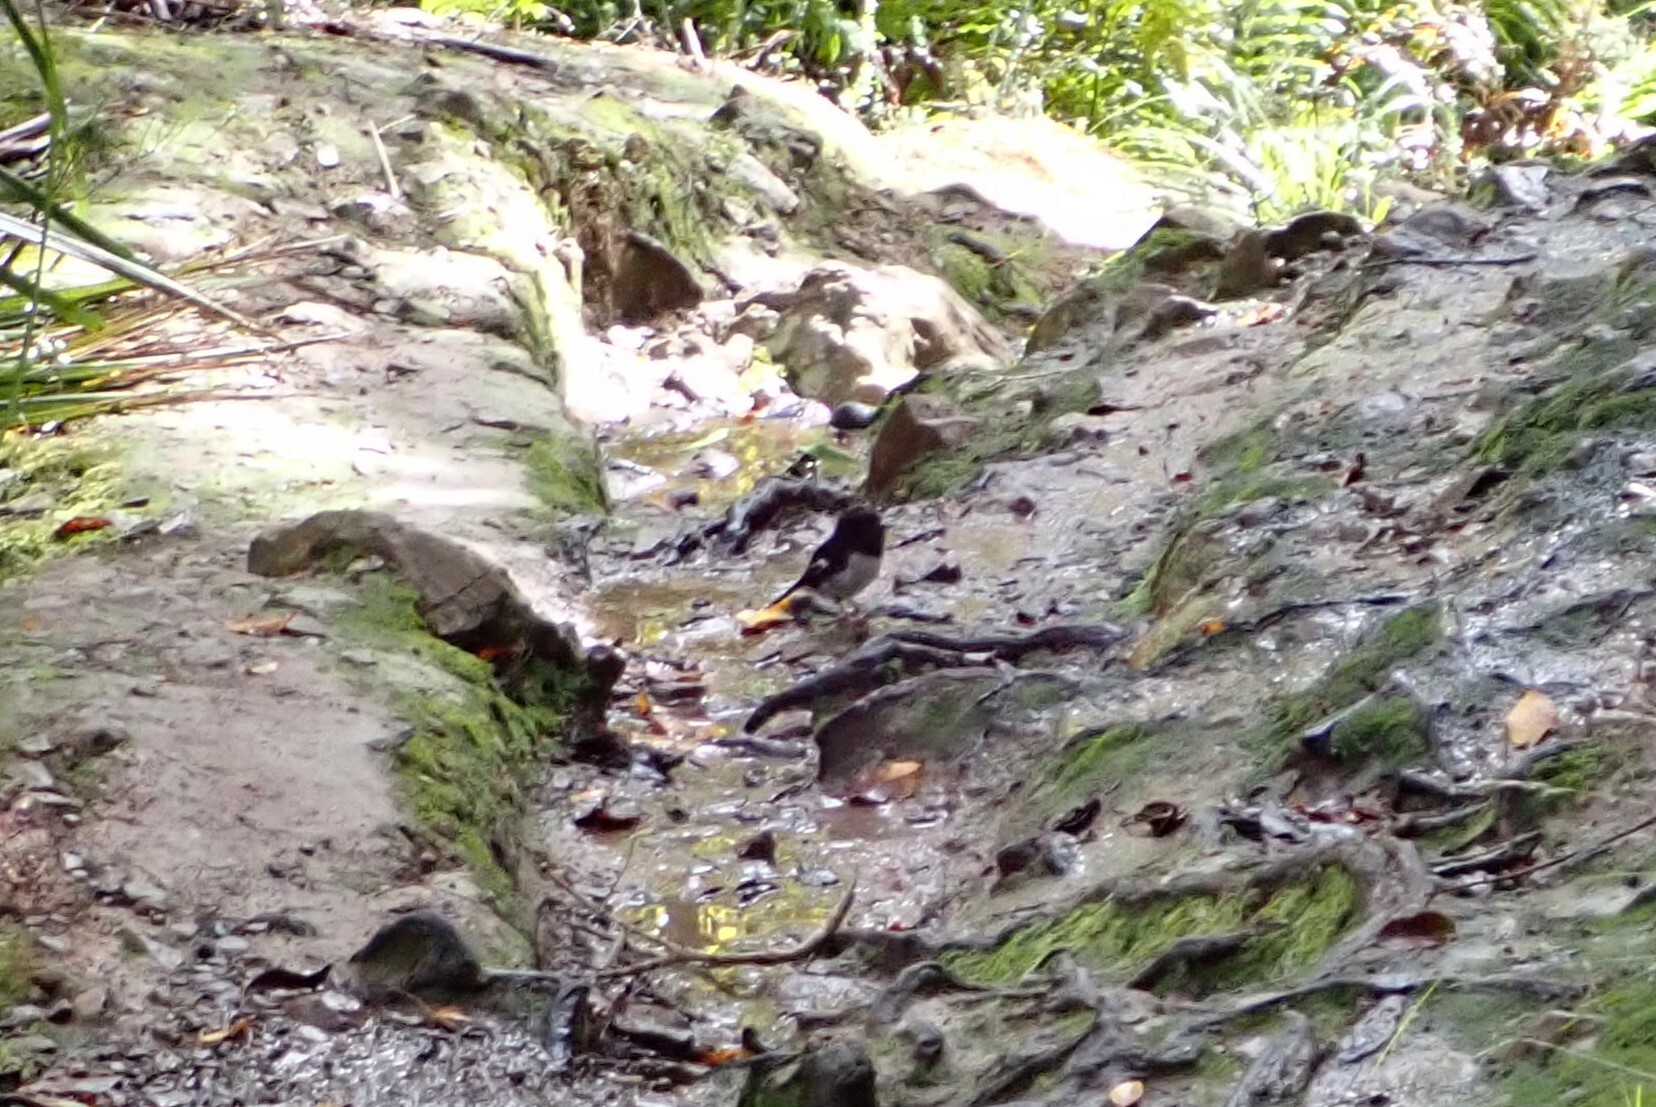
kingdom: Animalia
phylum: Chordata
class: Aves
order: Passeriformes
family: Petroicidae
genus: Petroica
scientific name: Petroica macrocephala
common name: Tomtit
